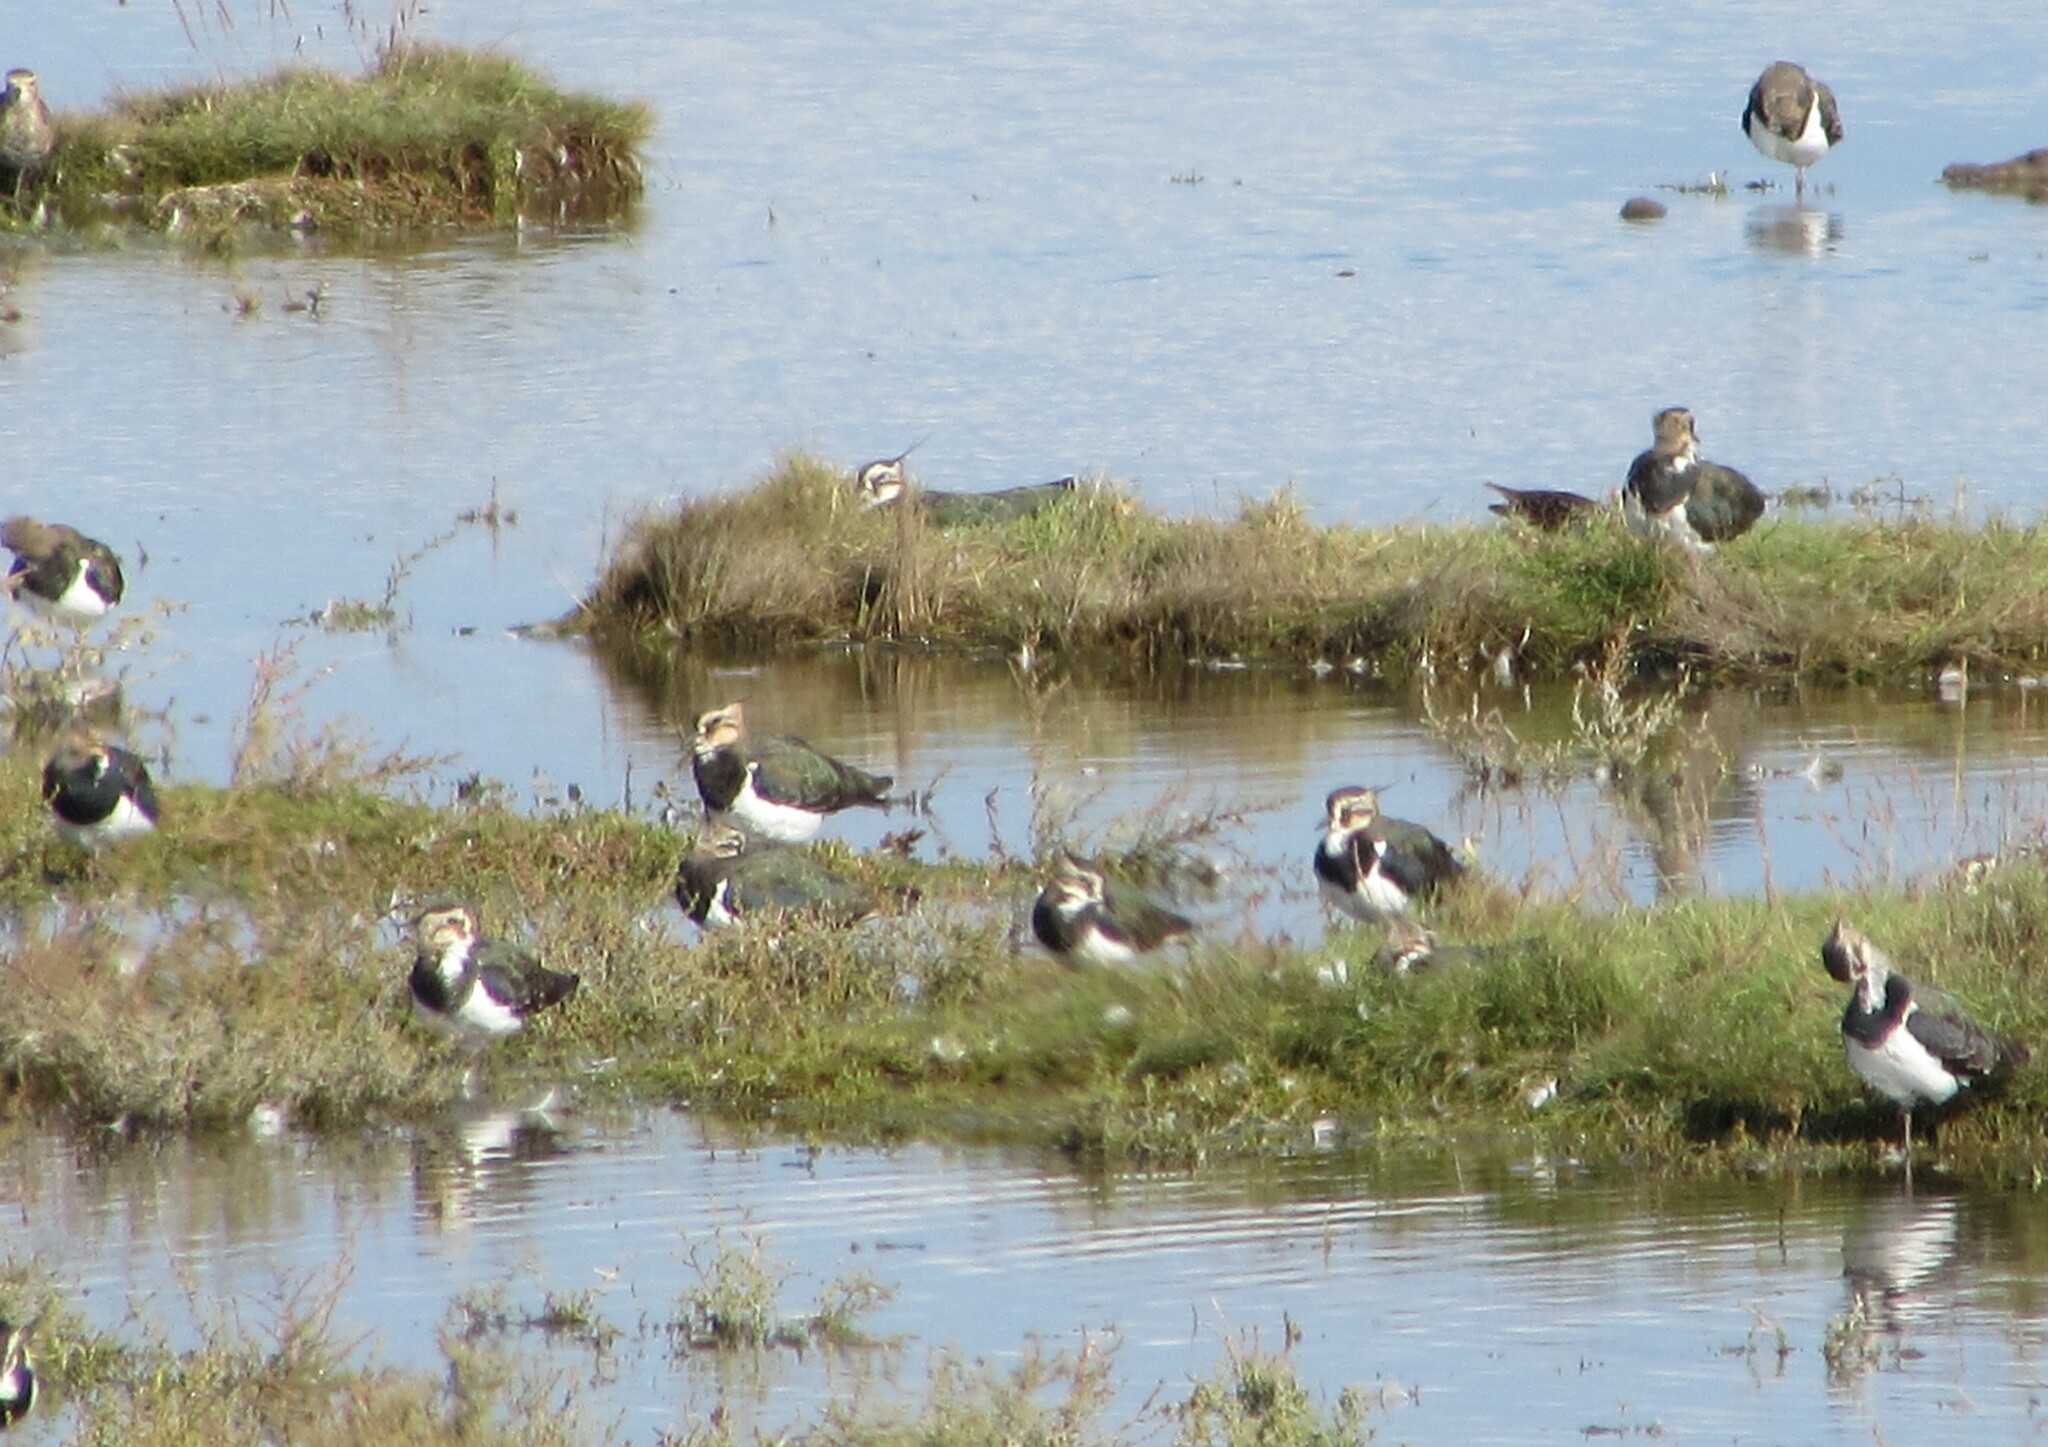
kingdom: Animalia
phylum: Chordata
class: Aves
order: Charadriiformes
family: Charadriidae
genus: Vanellus
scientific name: Vanellus vanellus
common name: Northern lapwing
